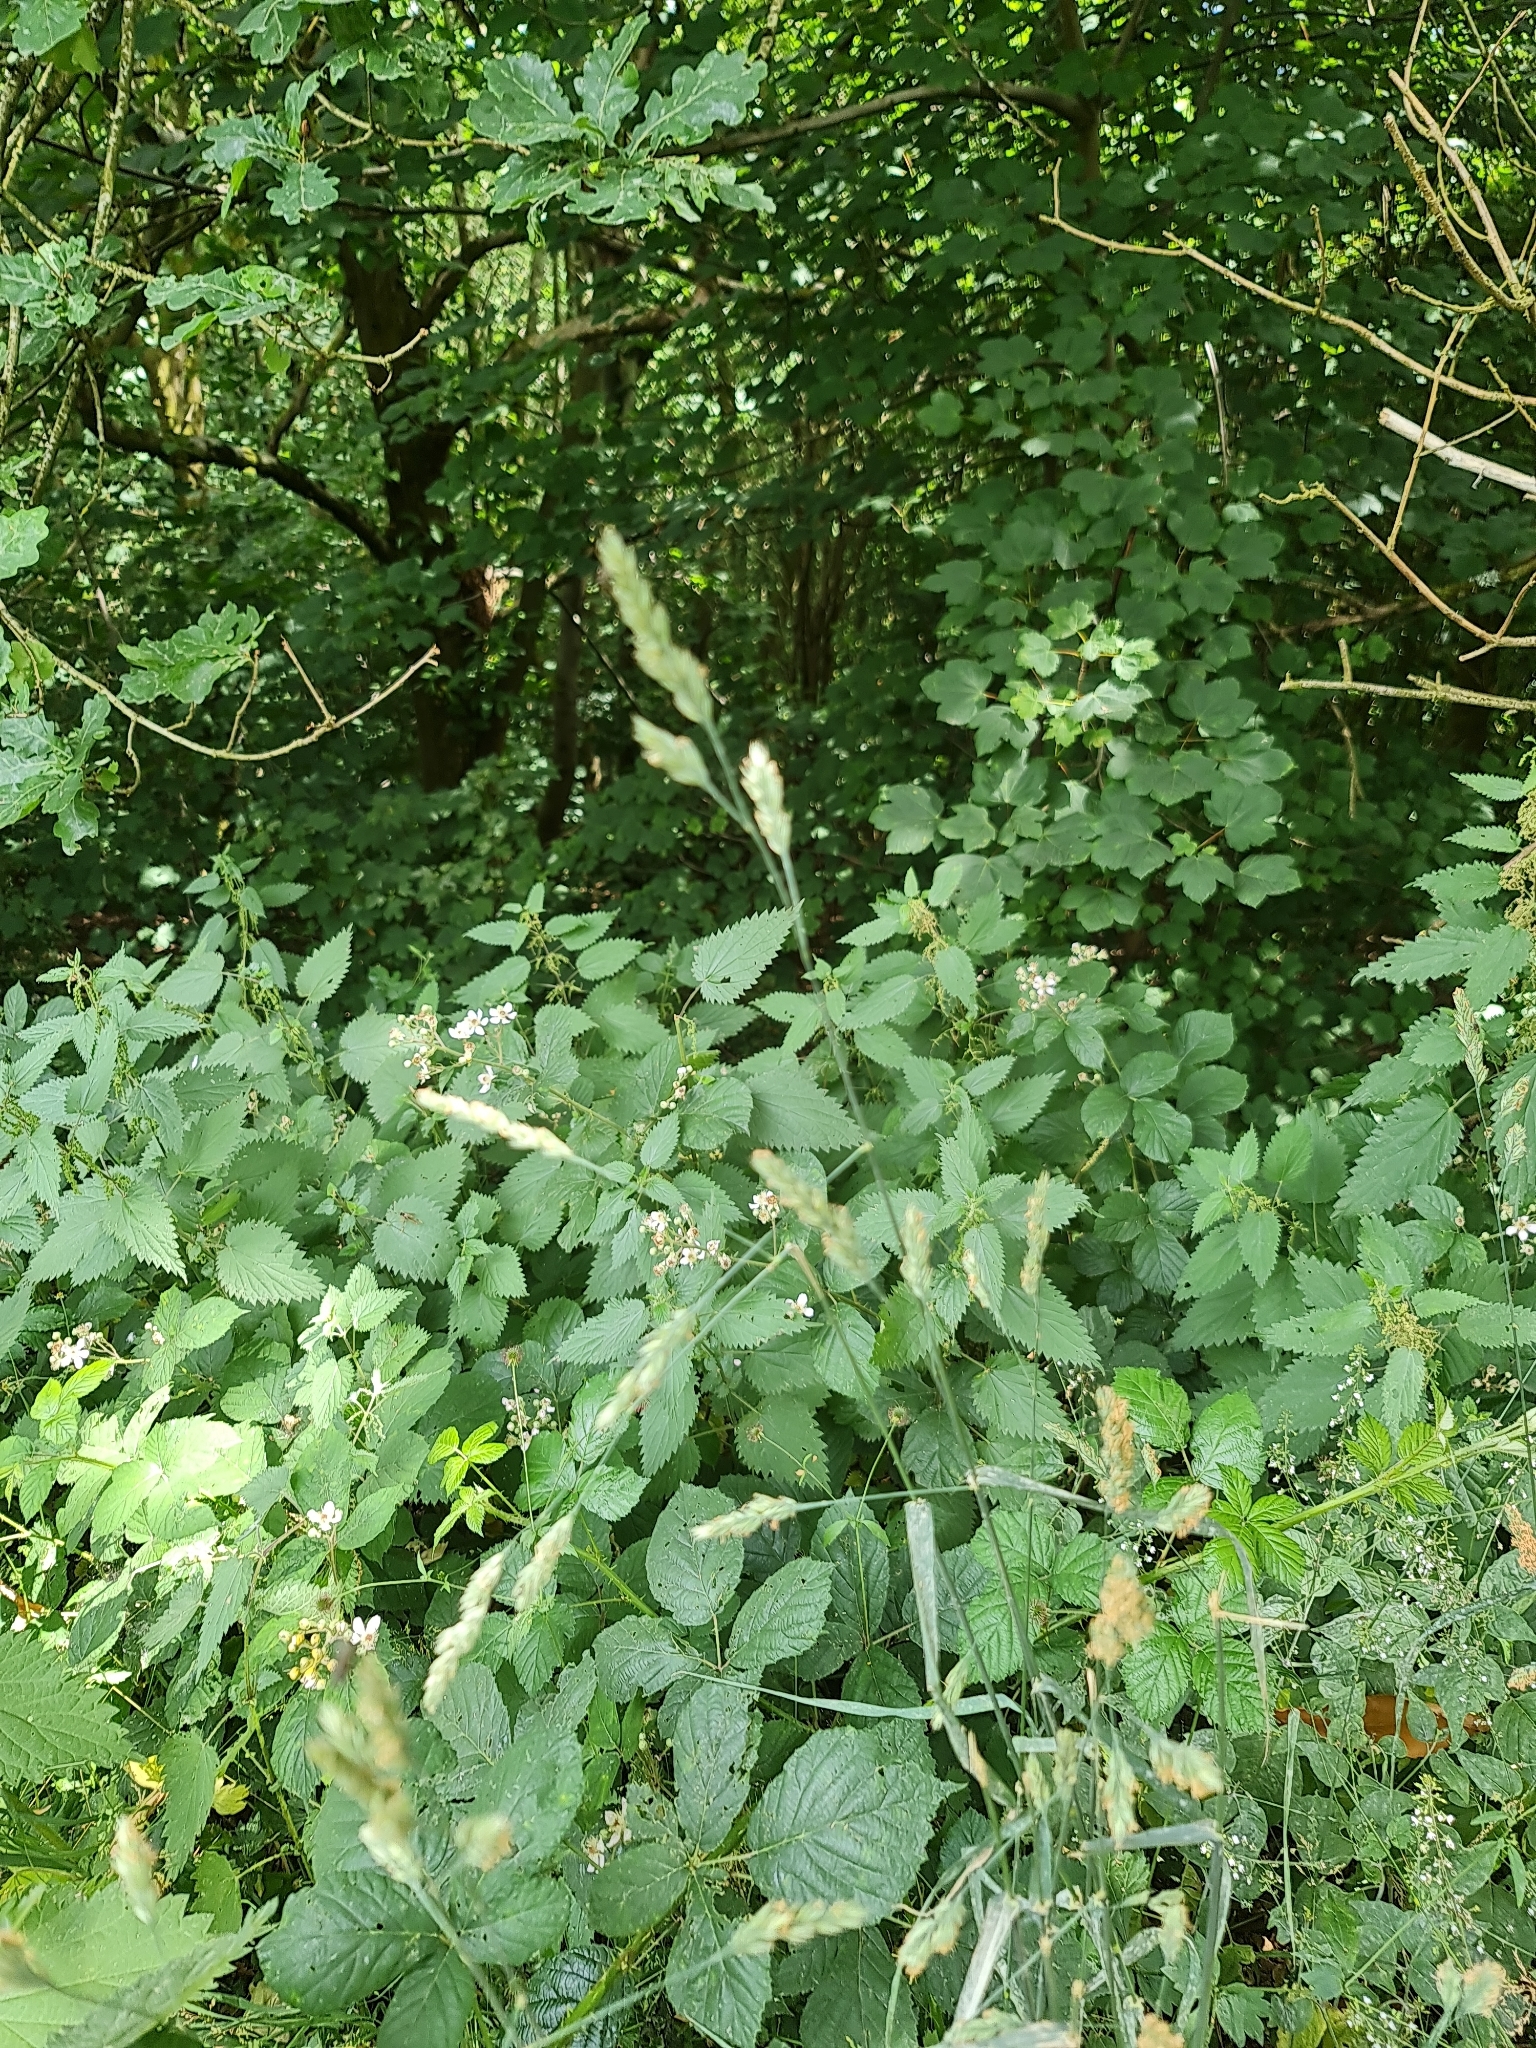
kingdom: Plantae
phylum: Tracheophyta
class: Liliopsida
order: Poales
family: Poaceae
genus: Dactylis
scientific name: Dactylis glomerata
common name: Orchardgrass
